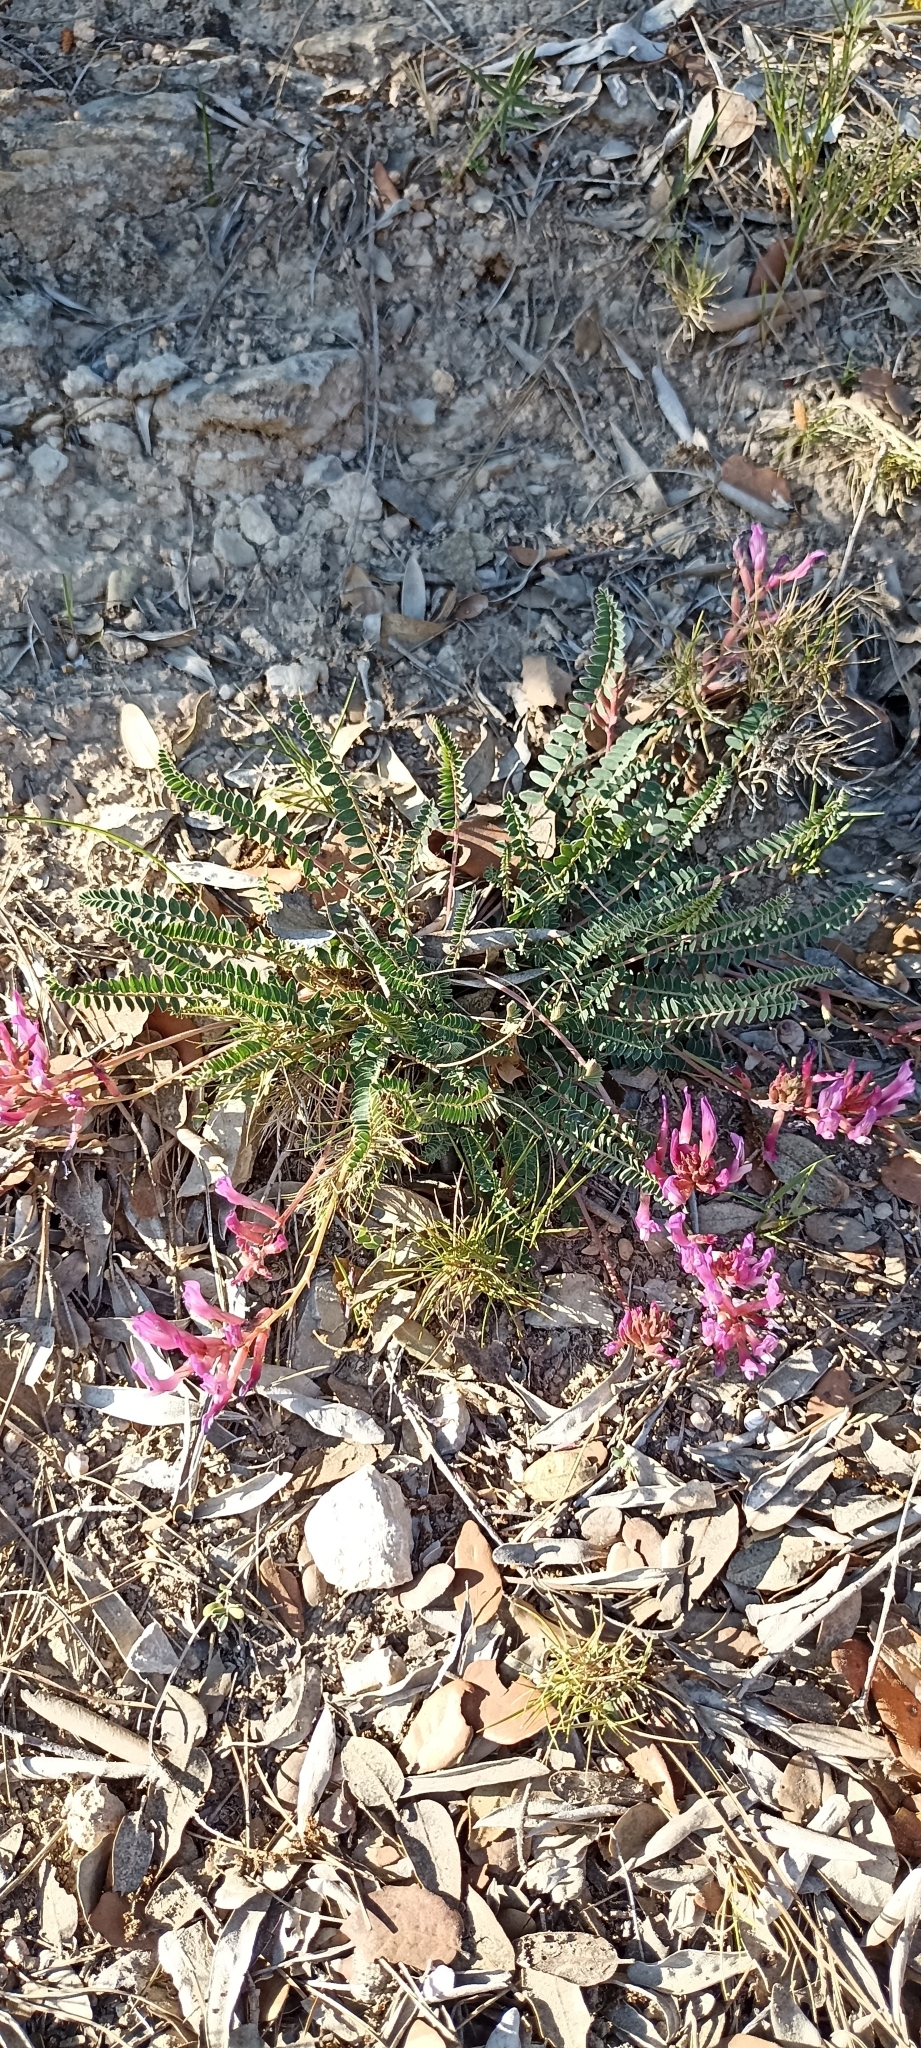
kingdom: Plantae
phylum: Tracheophyta
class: Magnoliopsida
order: Fabales
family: Fabaceae
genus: Astragalus
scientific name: Astragalus monspessulanus
